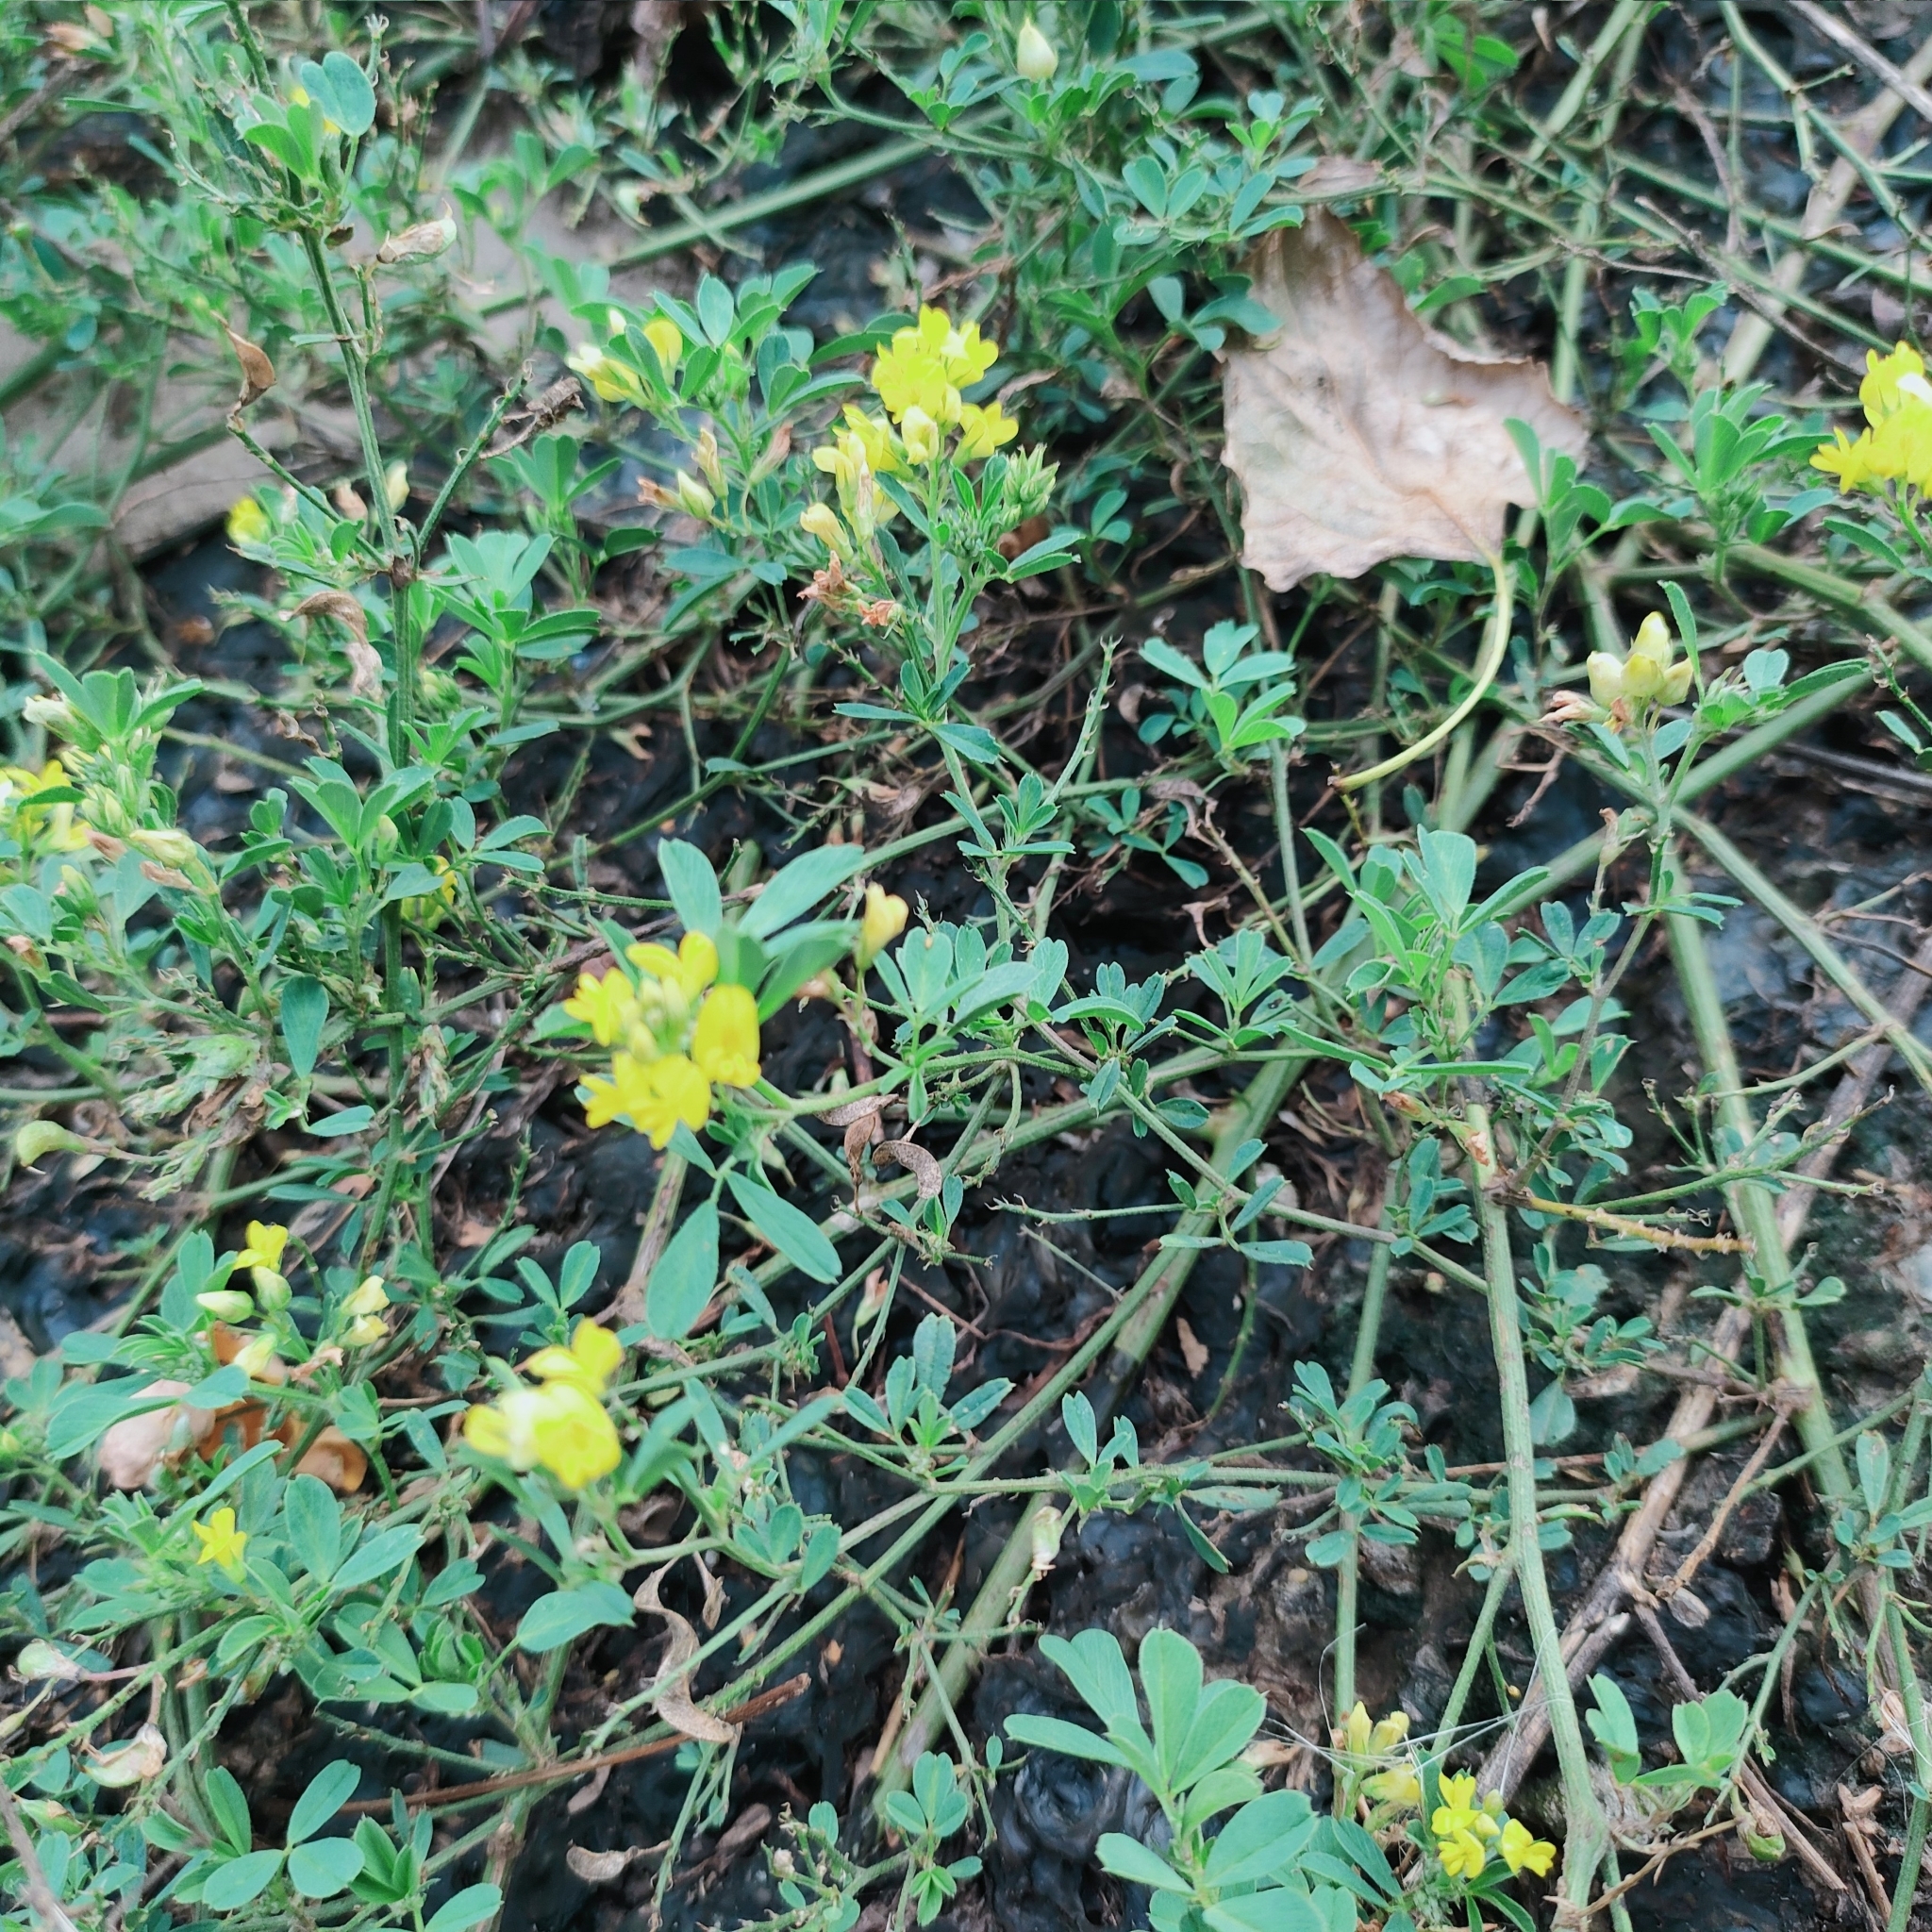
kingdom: Plantae
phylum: Tracheophyta
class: Magnoliopsida
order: Fabales
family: Fabaceae
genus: Medicago
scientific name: Medicago falcata
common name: Sickle medick
